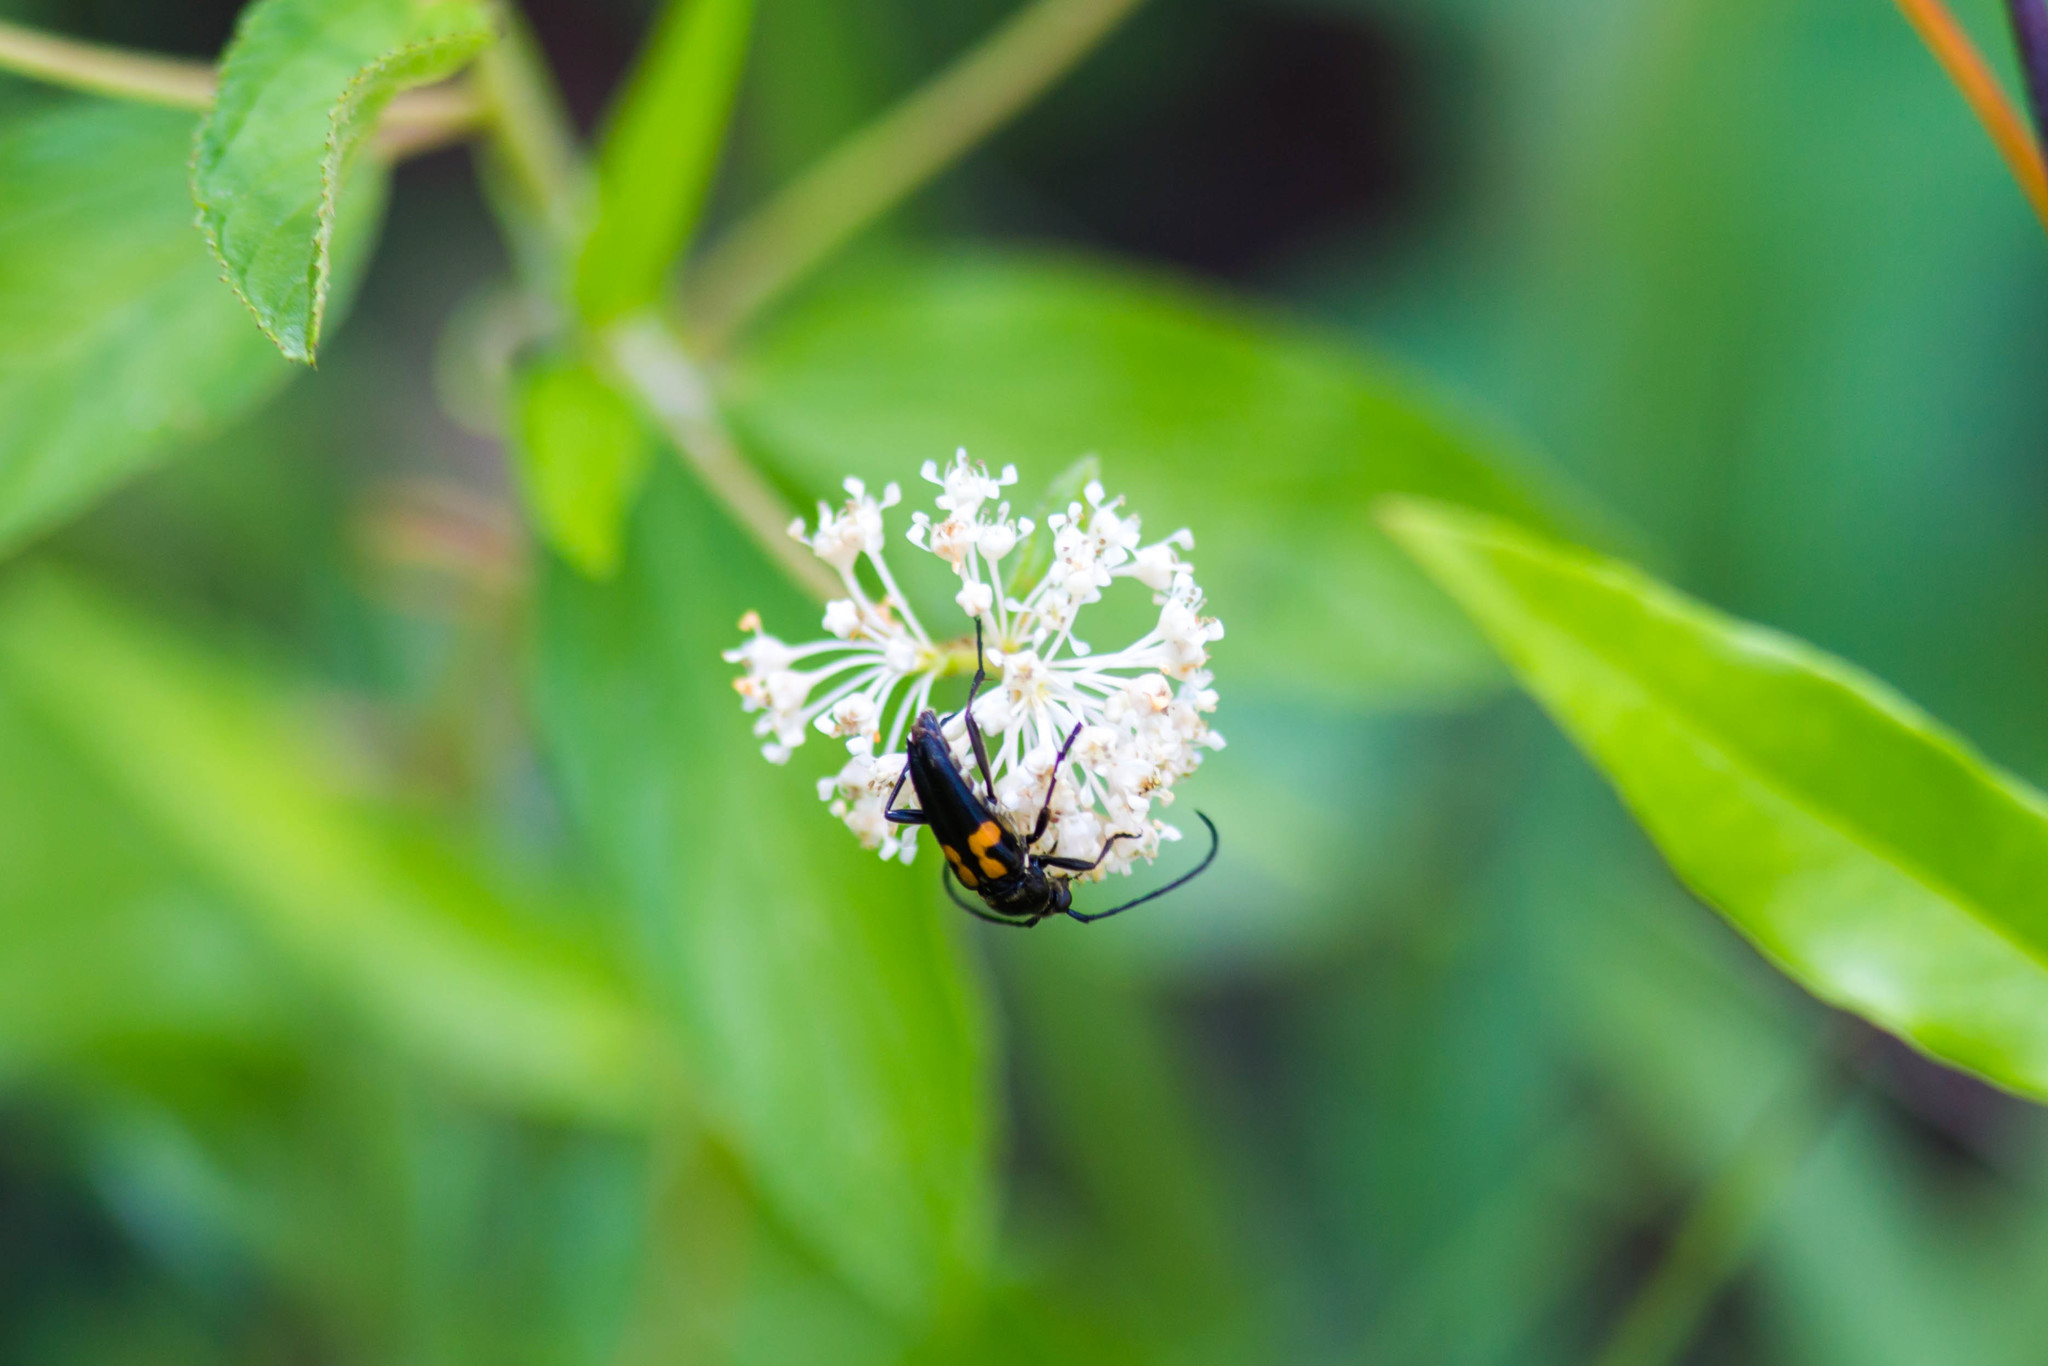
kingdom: Animalia
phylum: Arthropoda
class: Insecta
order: Coleoptera
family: Cerambycidae
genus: Typocerus
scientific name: Typocerus lunulatus
